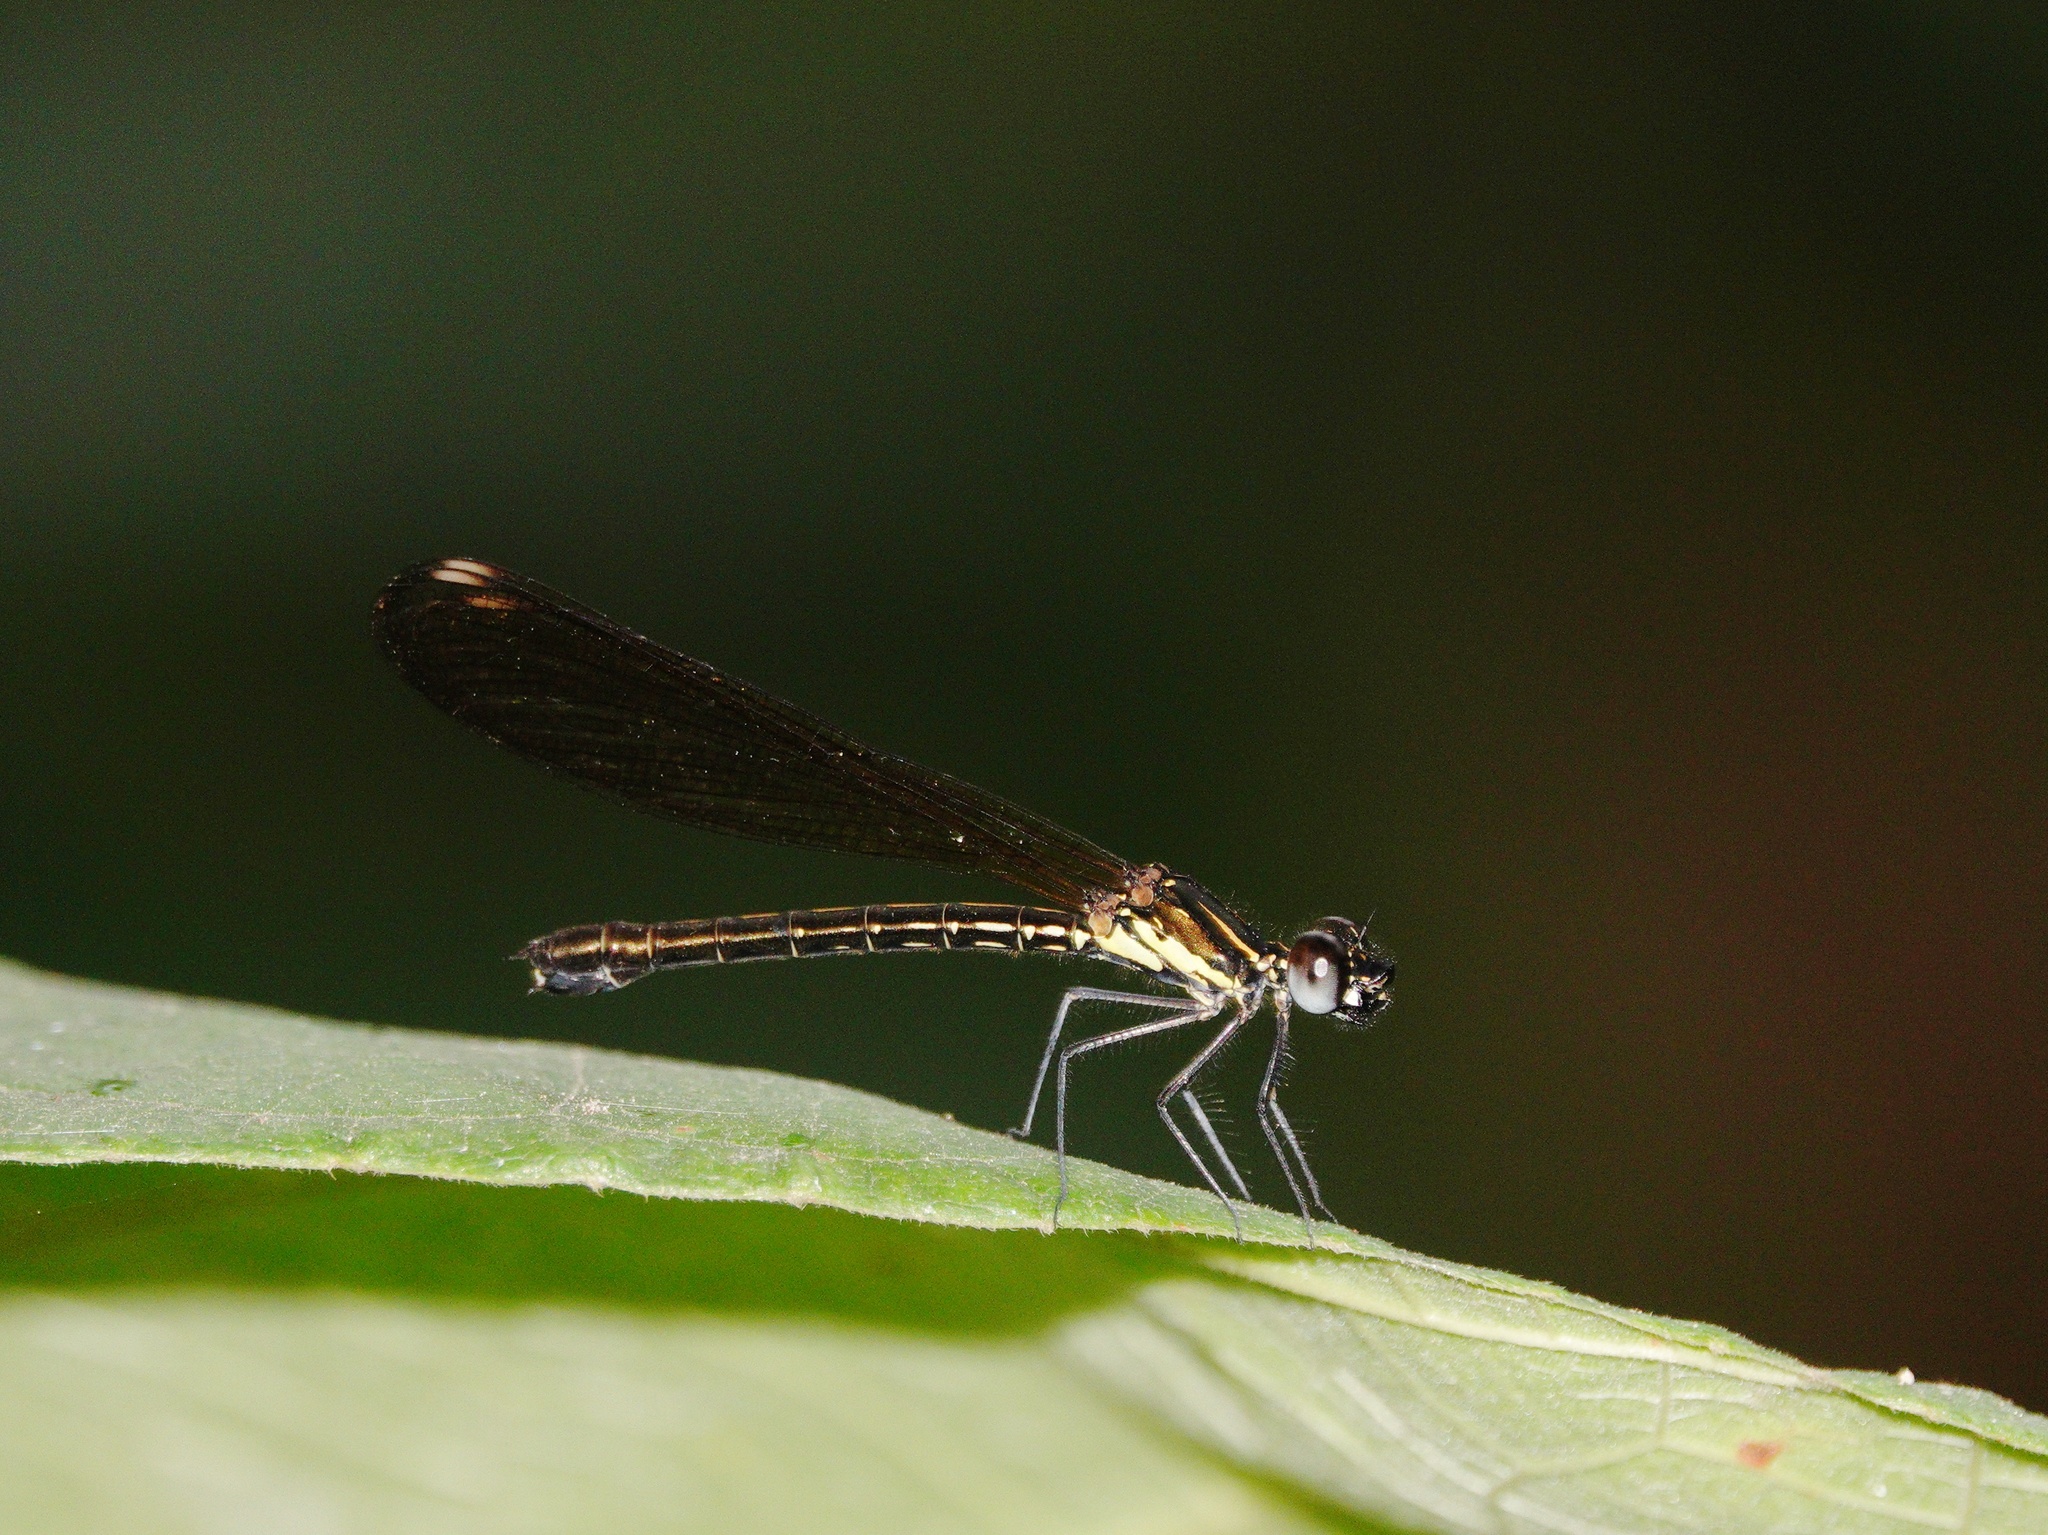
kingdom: Animalia
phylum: Arthropoda
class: Insecta
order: Odonata
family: Chlorocyphidae
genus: Heliocypha
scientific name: Heliocypha fenestrata
